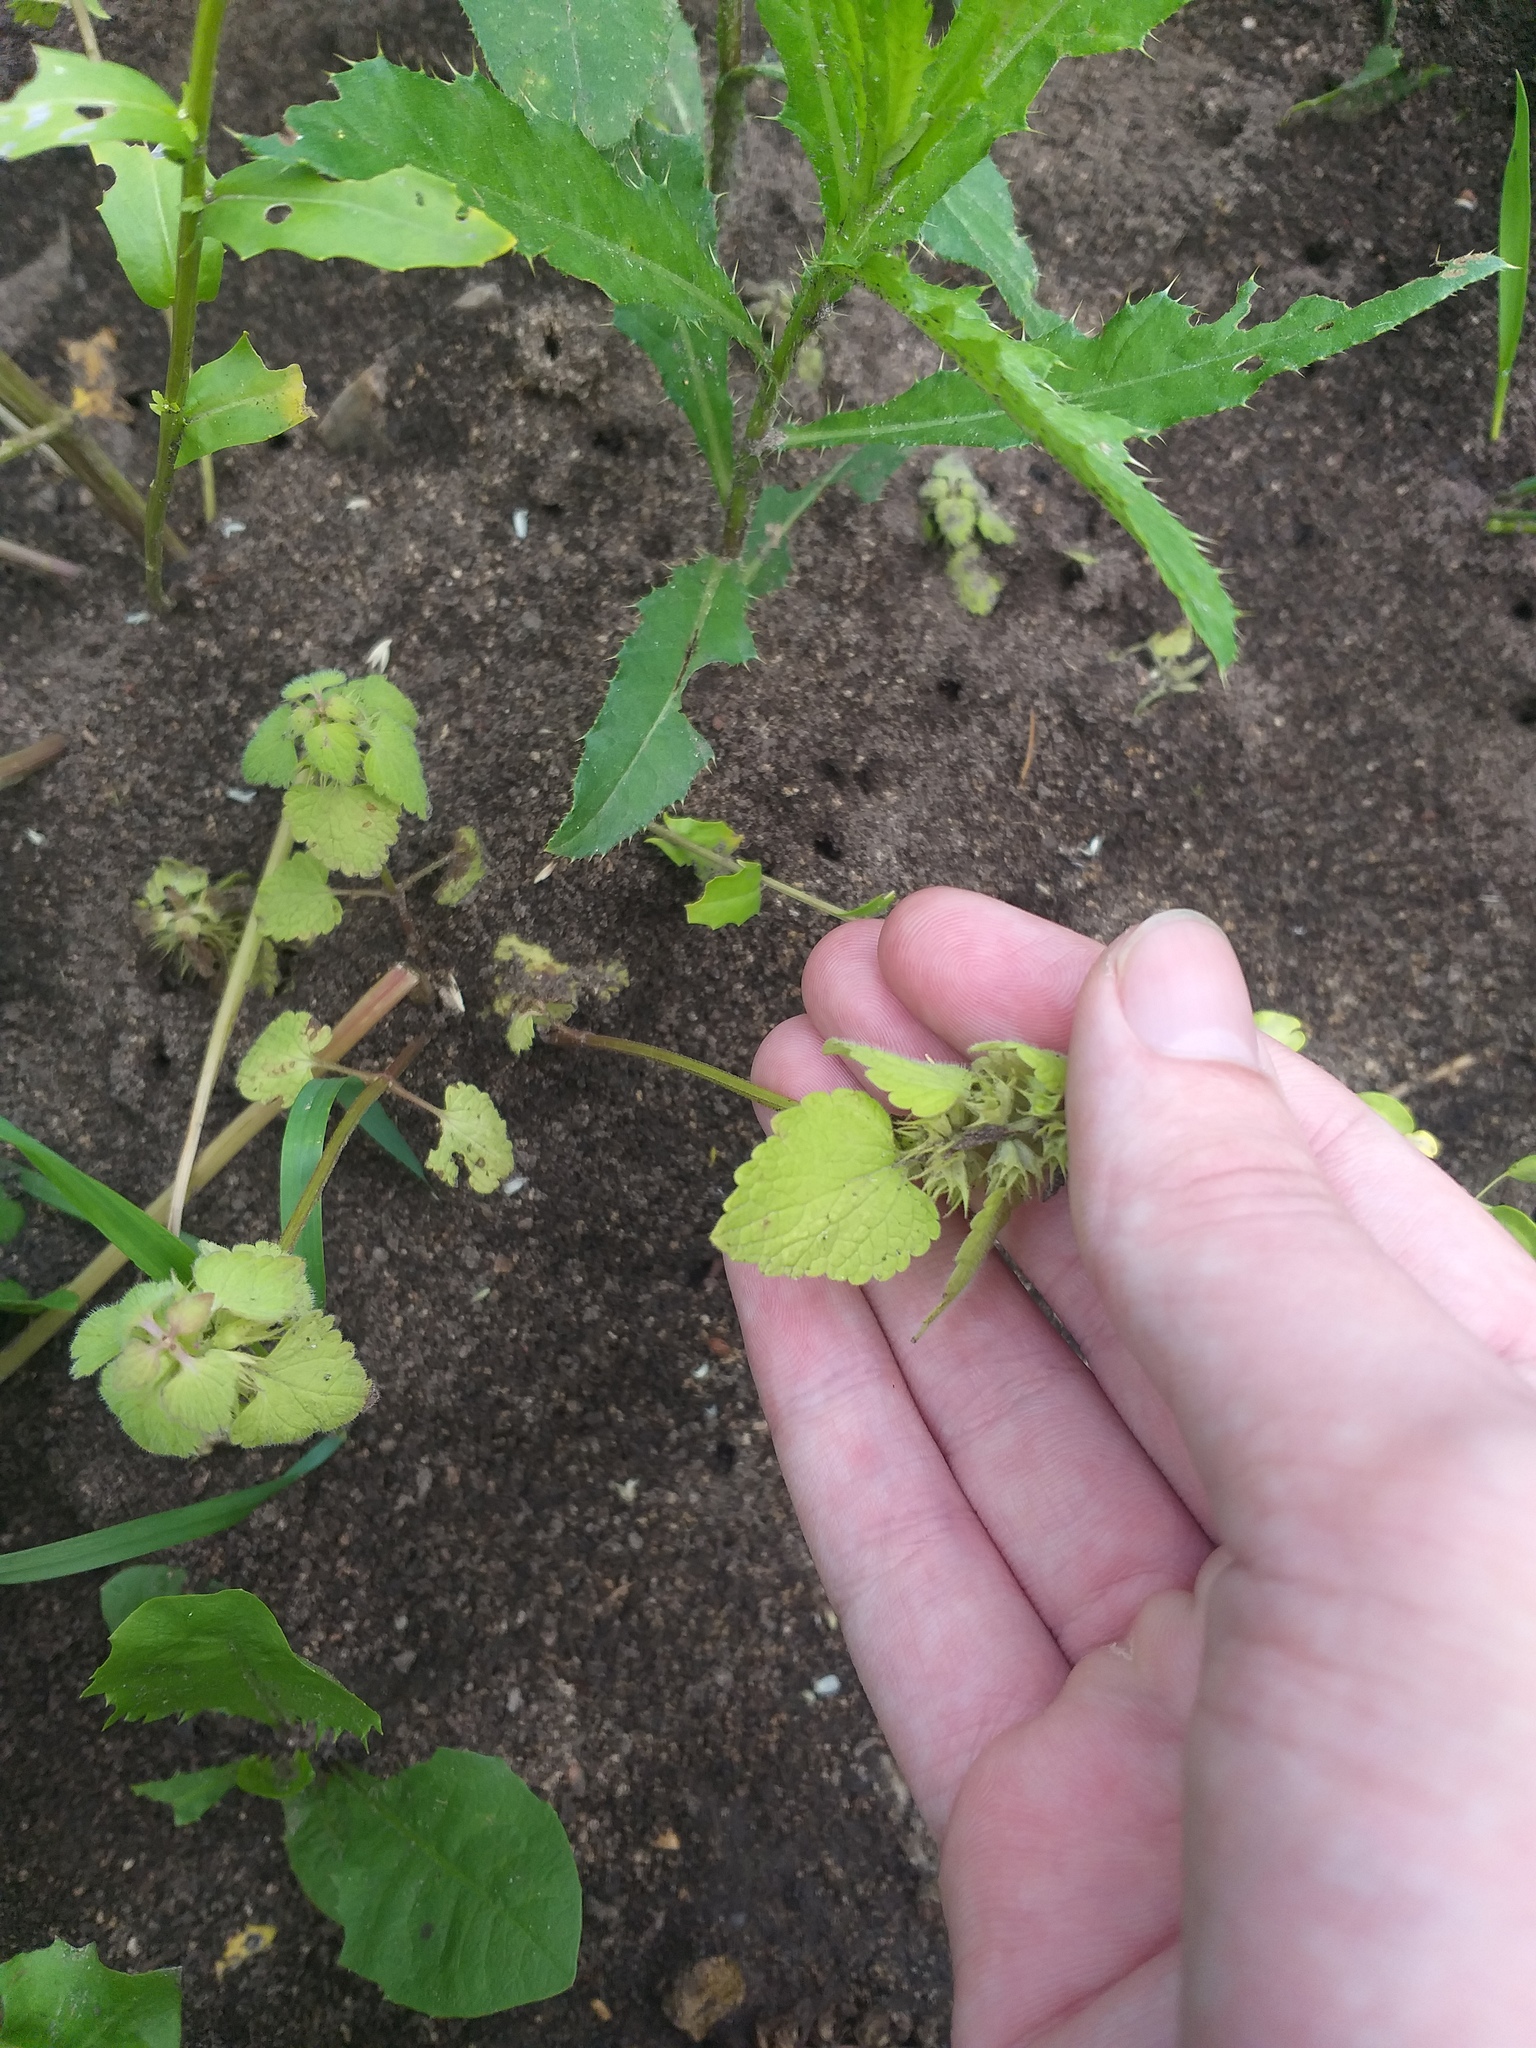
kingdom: Plantae
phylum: Tracheophyta
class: Magnoliopsida
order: Lamiales
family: Lamiaceae
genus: Lamium
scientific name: Lamium purpureum
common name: Red dead-nettle
